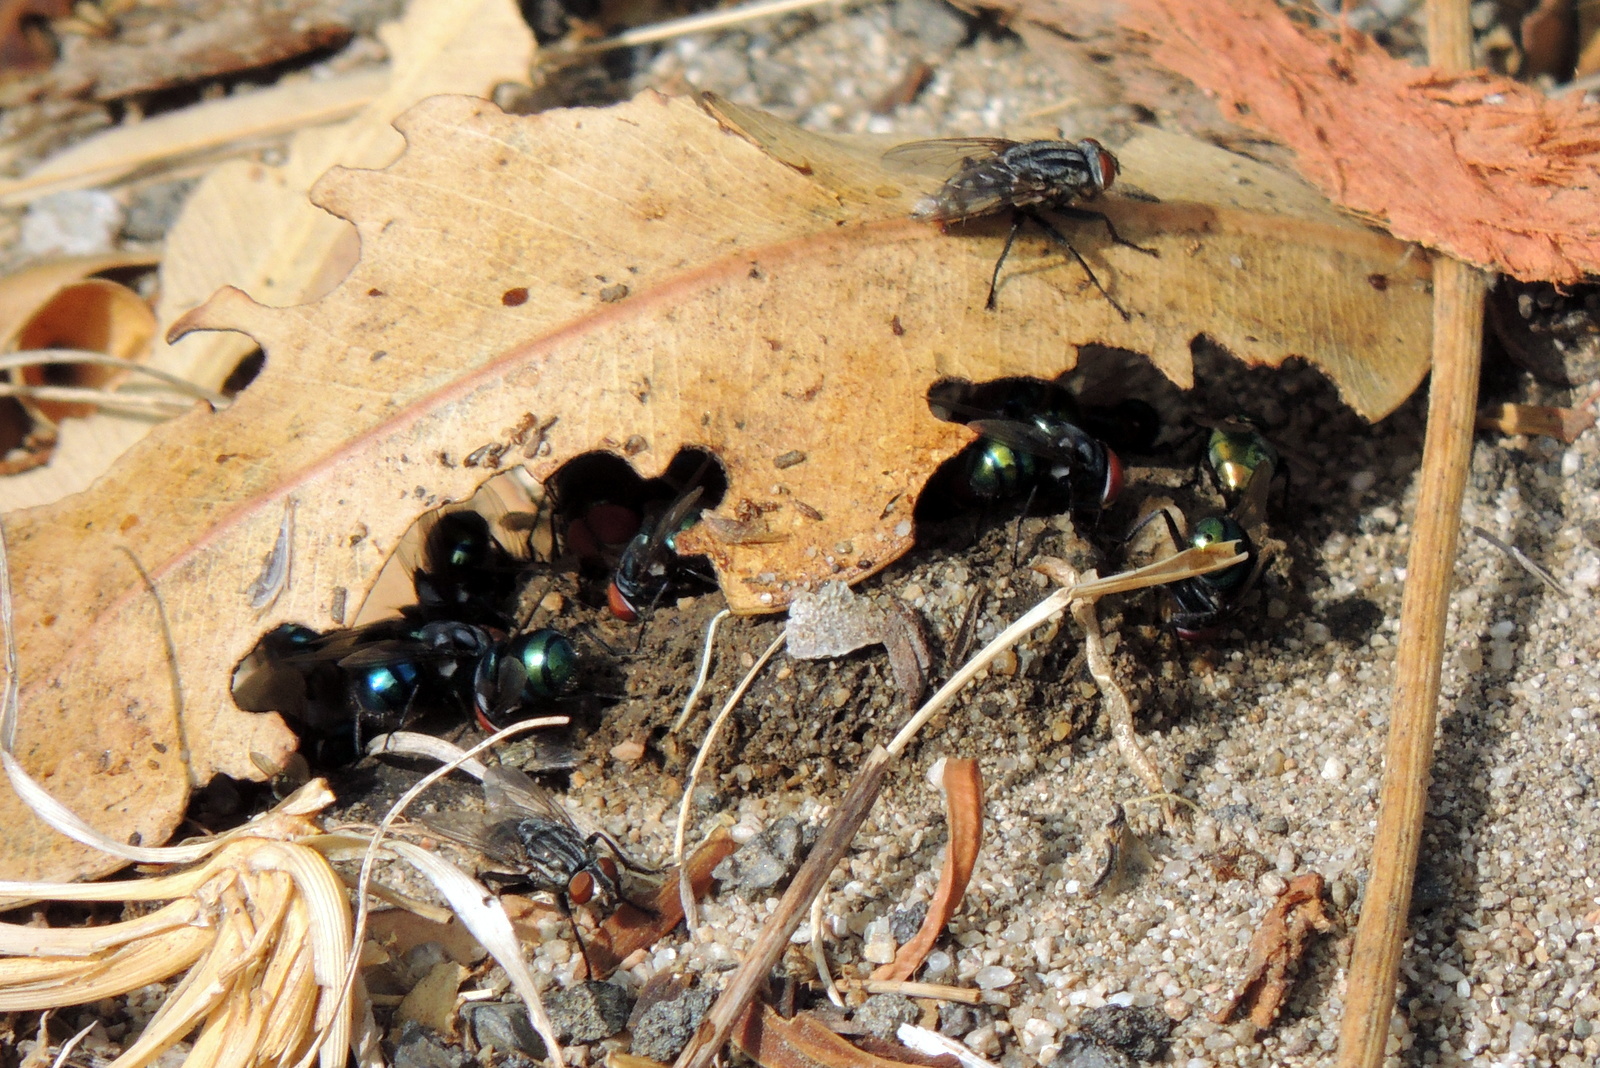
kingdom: Animalia
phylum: Arthropoda
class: Insecta
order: Diptera
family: Calliphoridae
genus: Chrysomya
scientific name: Chrysomya megacephala
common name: Blow fly
